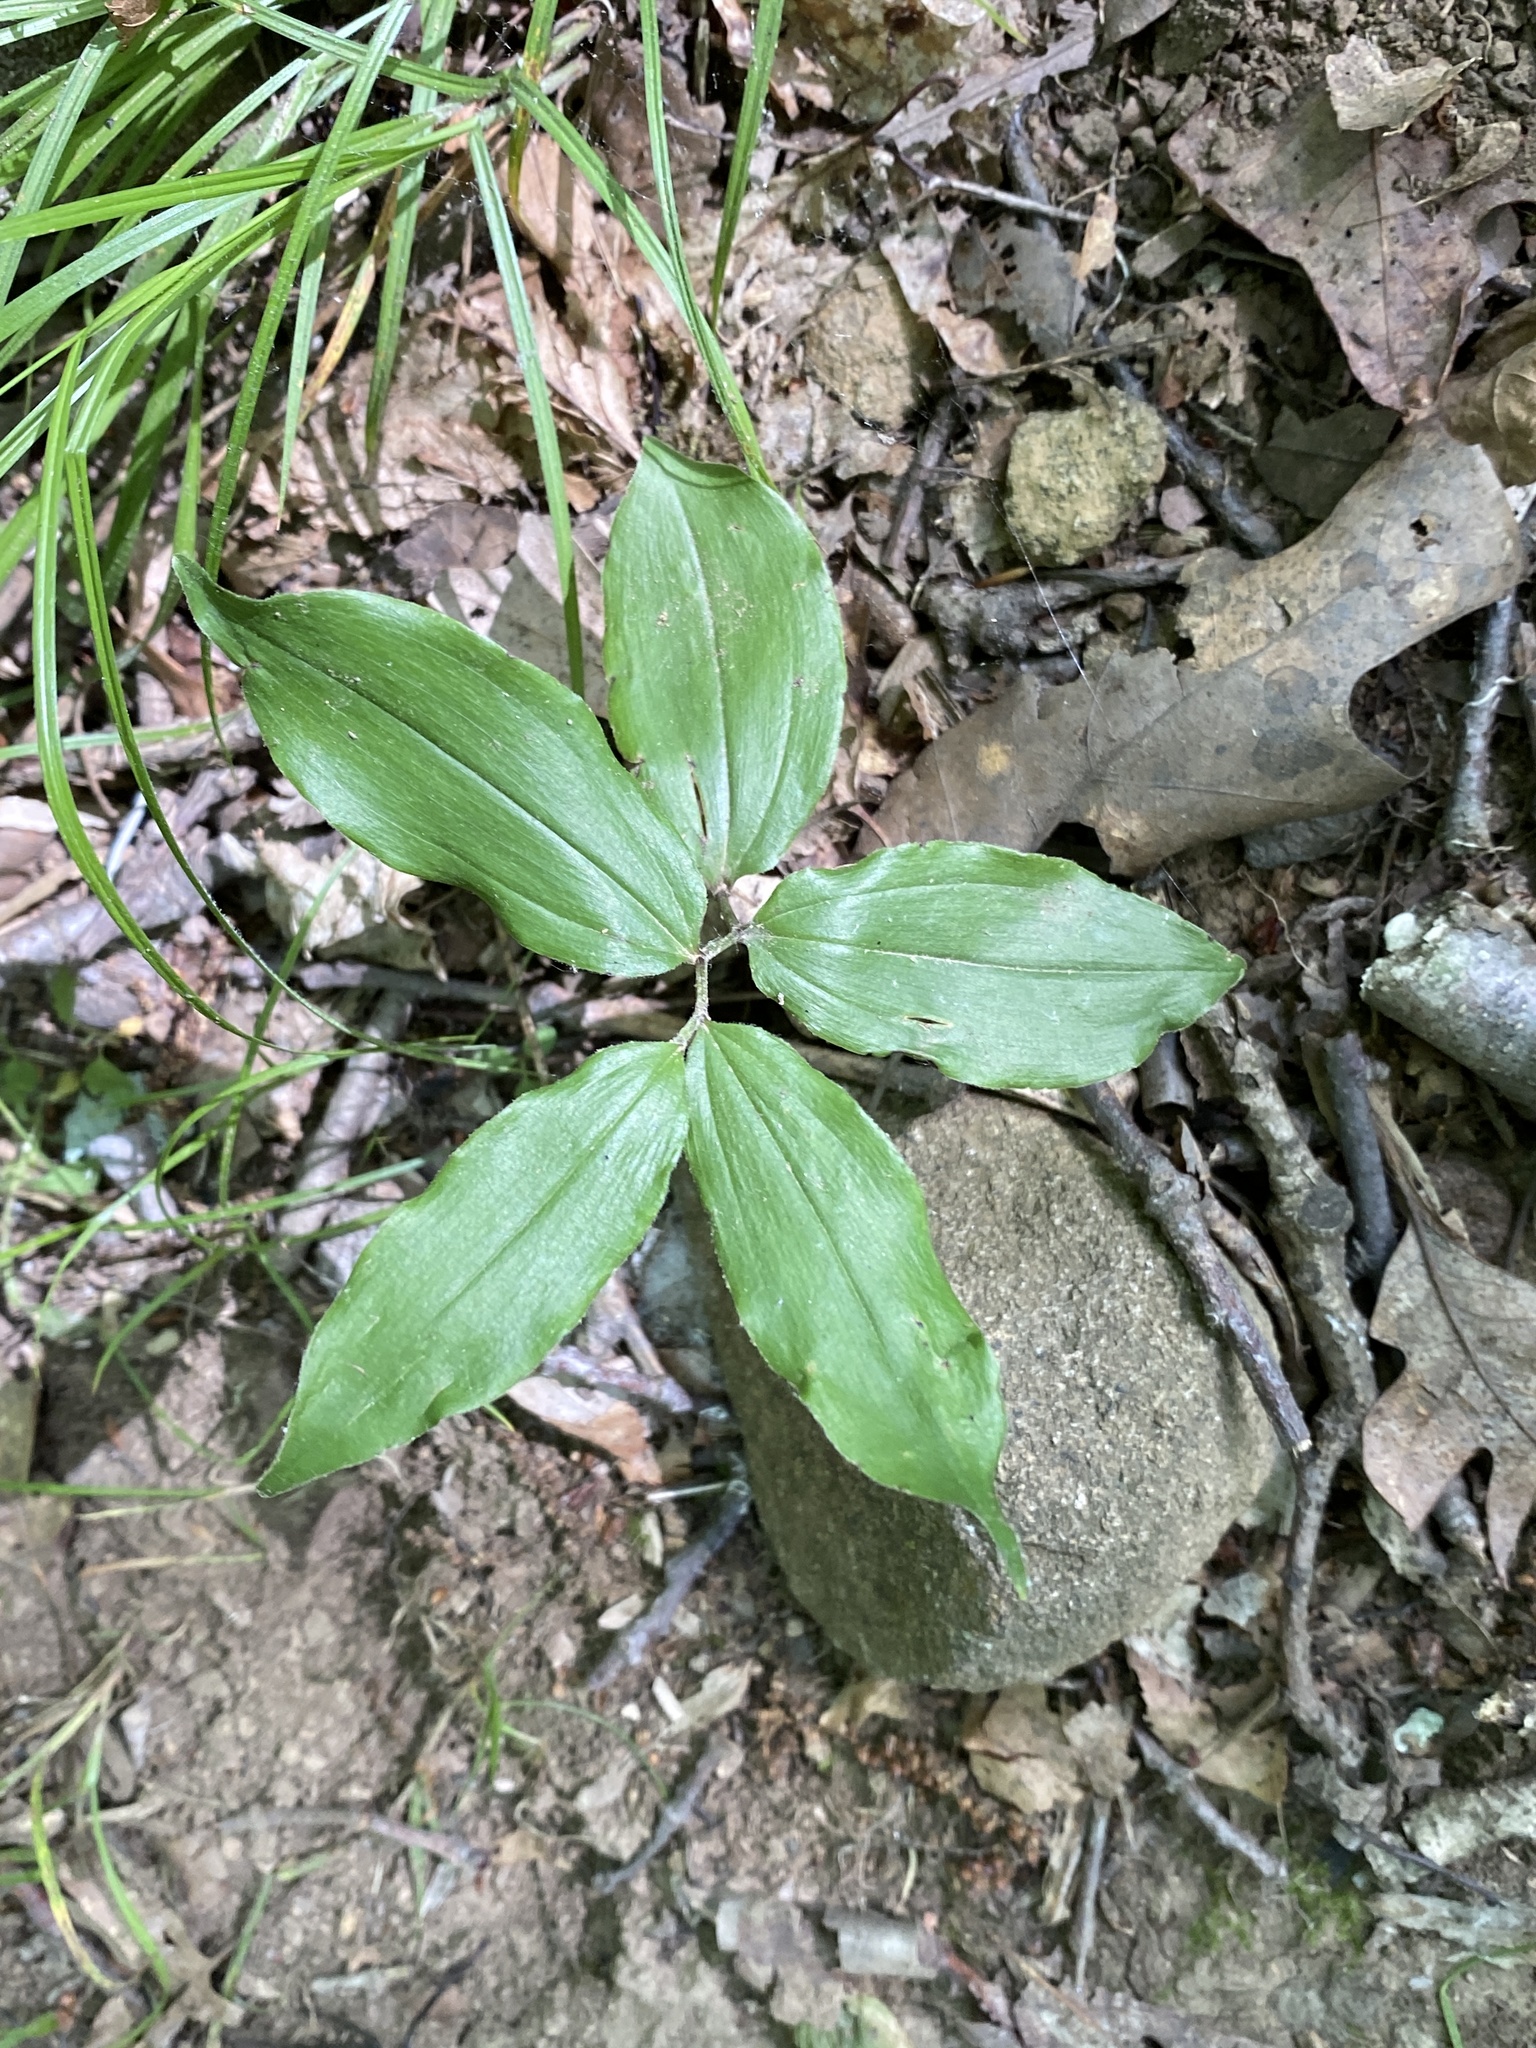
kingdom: Plantae
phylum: Tracheophyta
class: Liliopsida
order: Asparagales
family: Asparagaceae
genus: Maianthemum
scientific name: Maianthemum racemosum
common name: False spikenard
